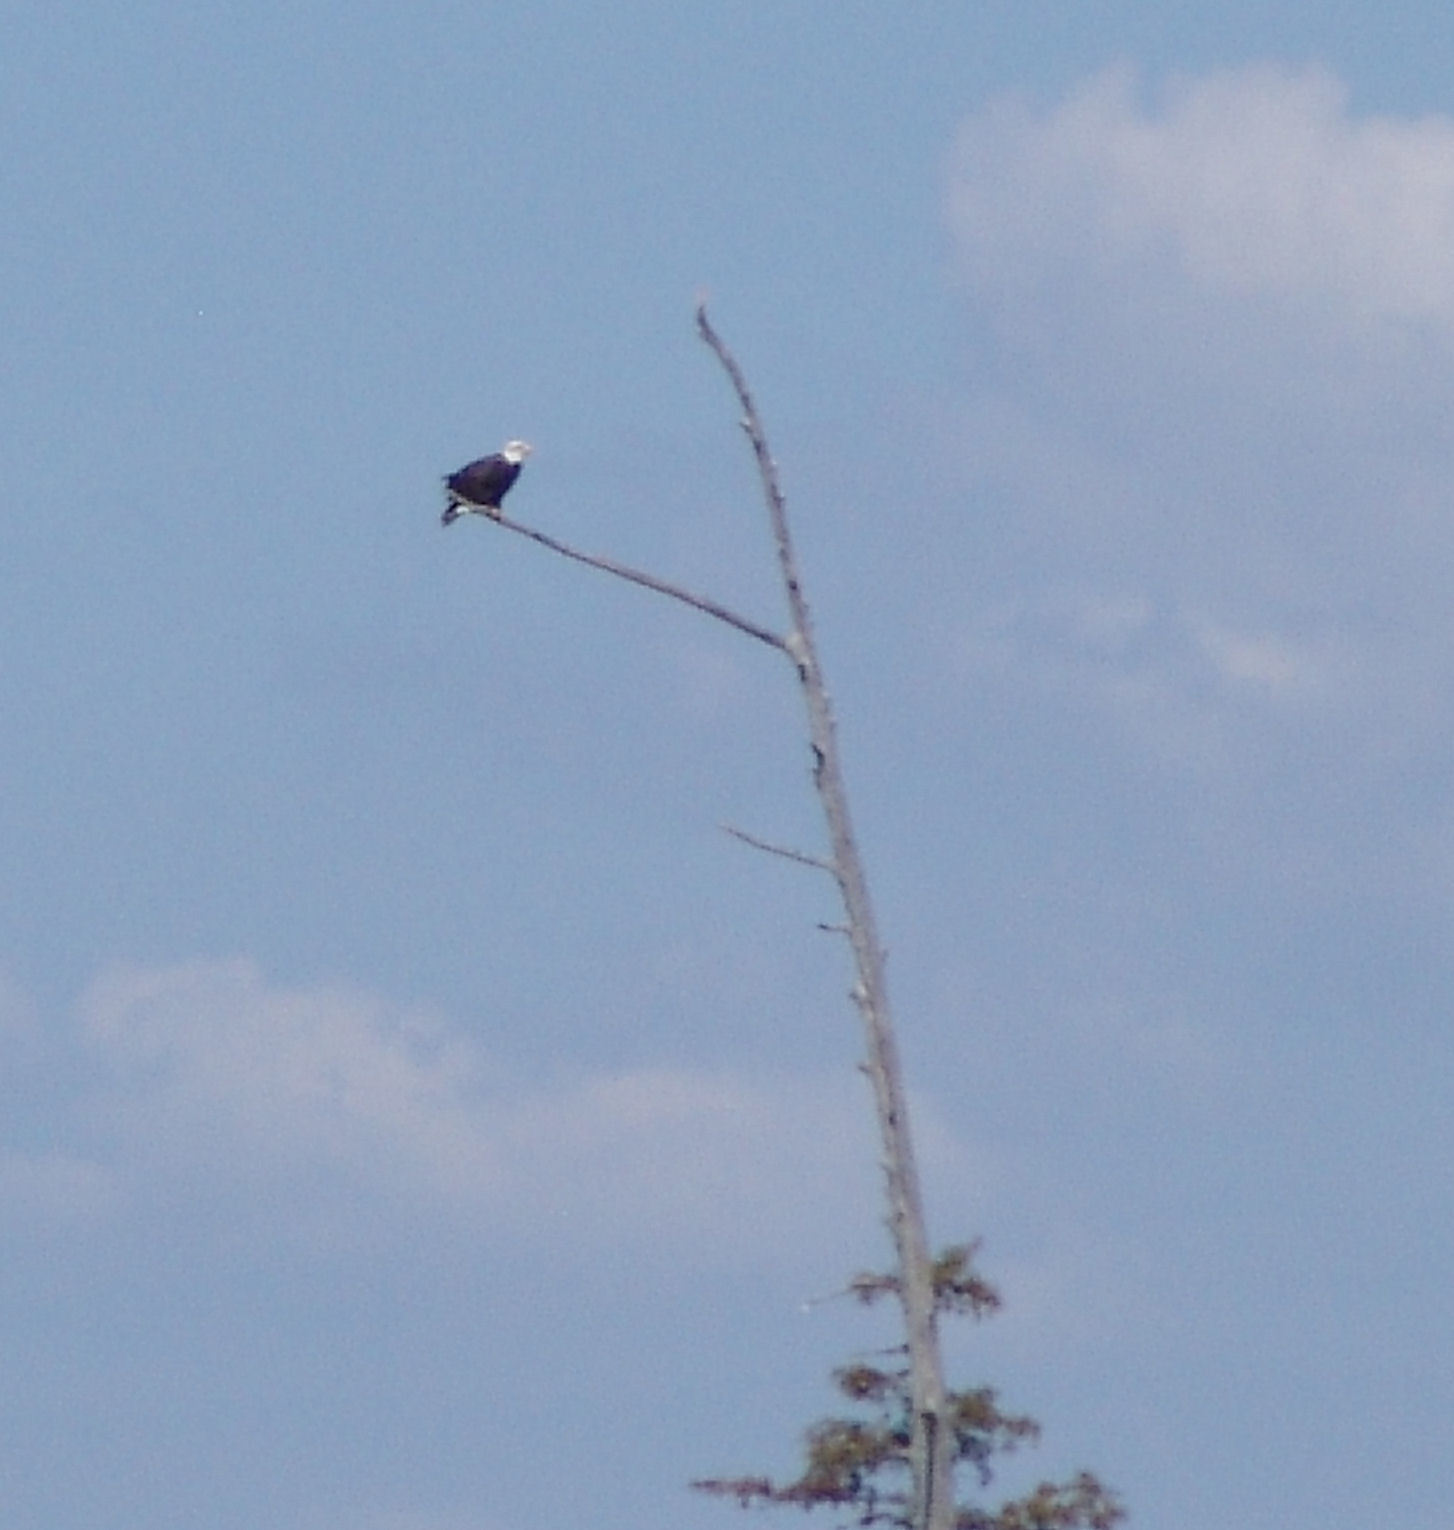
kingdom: Animalia
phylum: Chordata
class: Aves
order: Accipitriformes
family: Accipitridae
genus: Haliaeetus
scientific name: Haliaeetus leucocephalus
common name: Bald eagle
